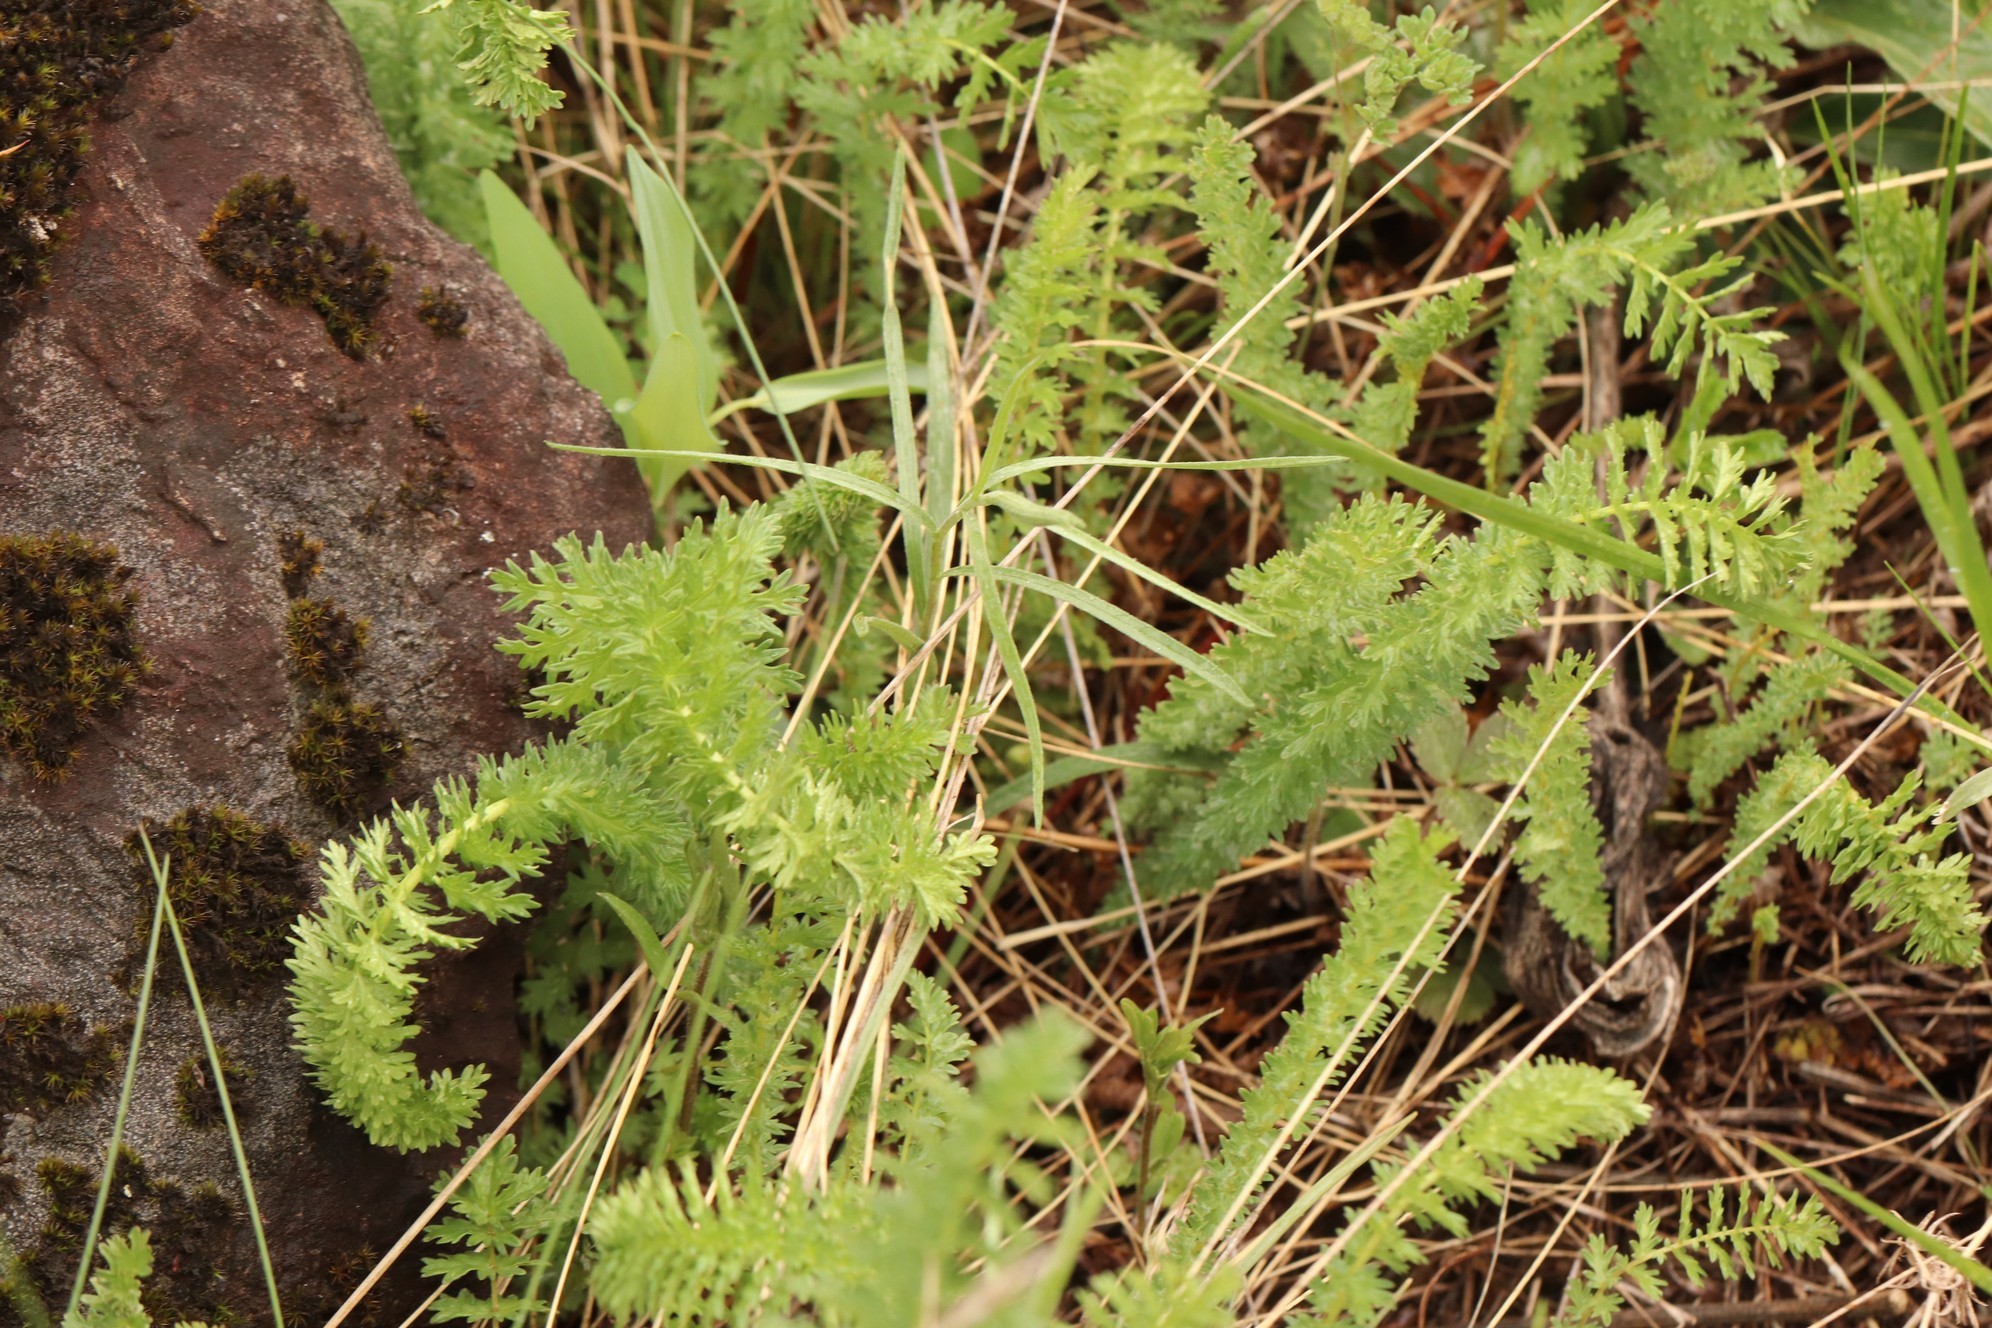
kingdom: Plantae
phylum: Tracheophyta
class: Magnoliopsida
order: Rosales
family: Rosaceae
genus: Filipendula
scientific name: Filipendula vulgaris
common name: Dropwort
